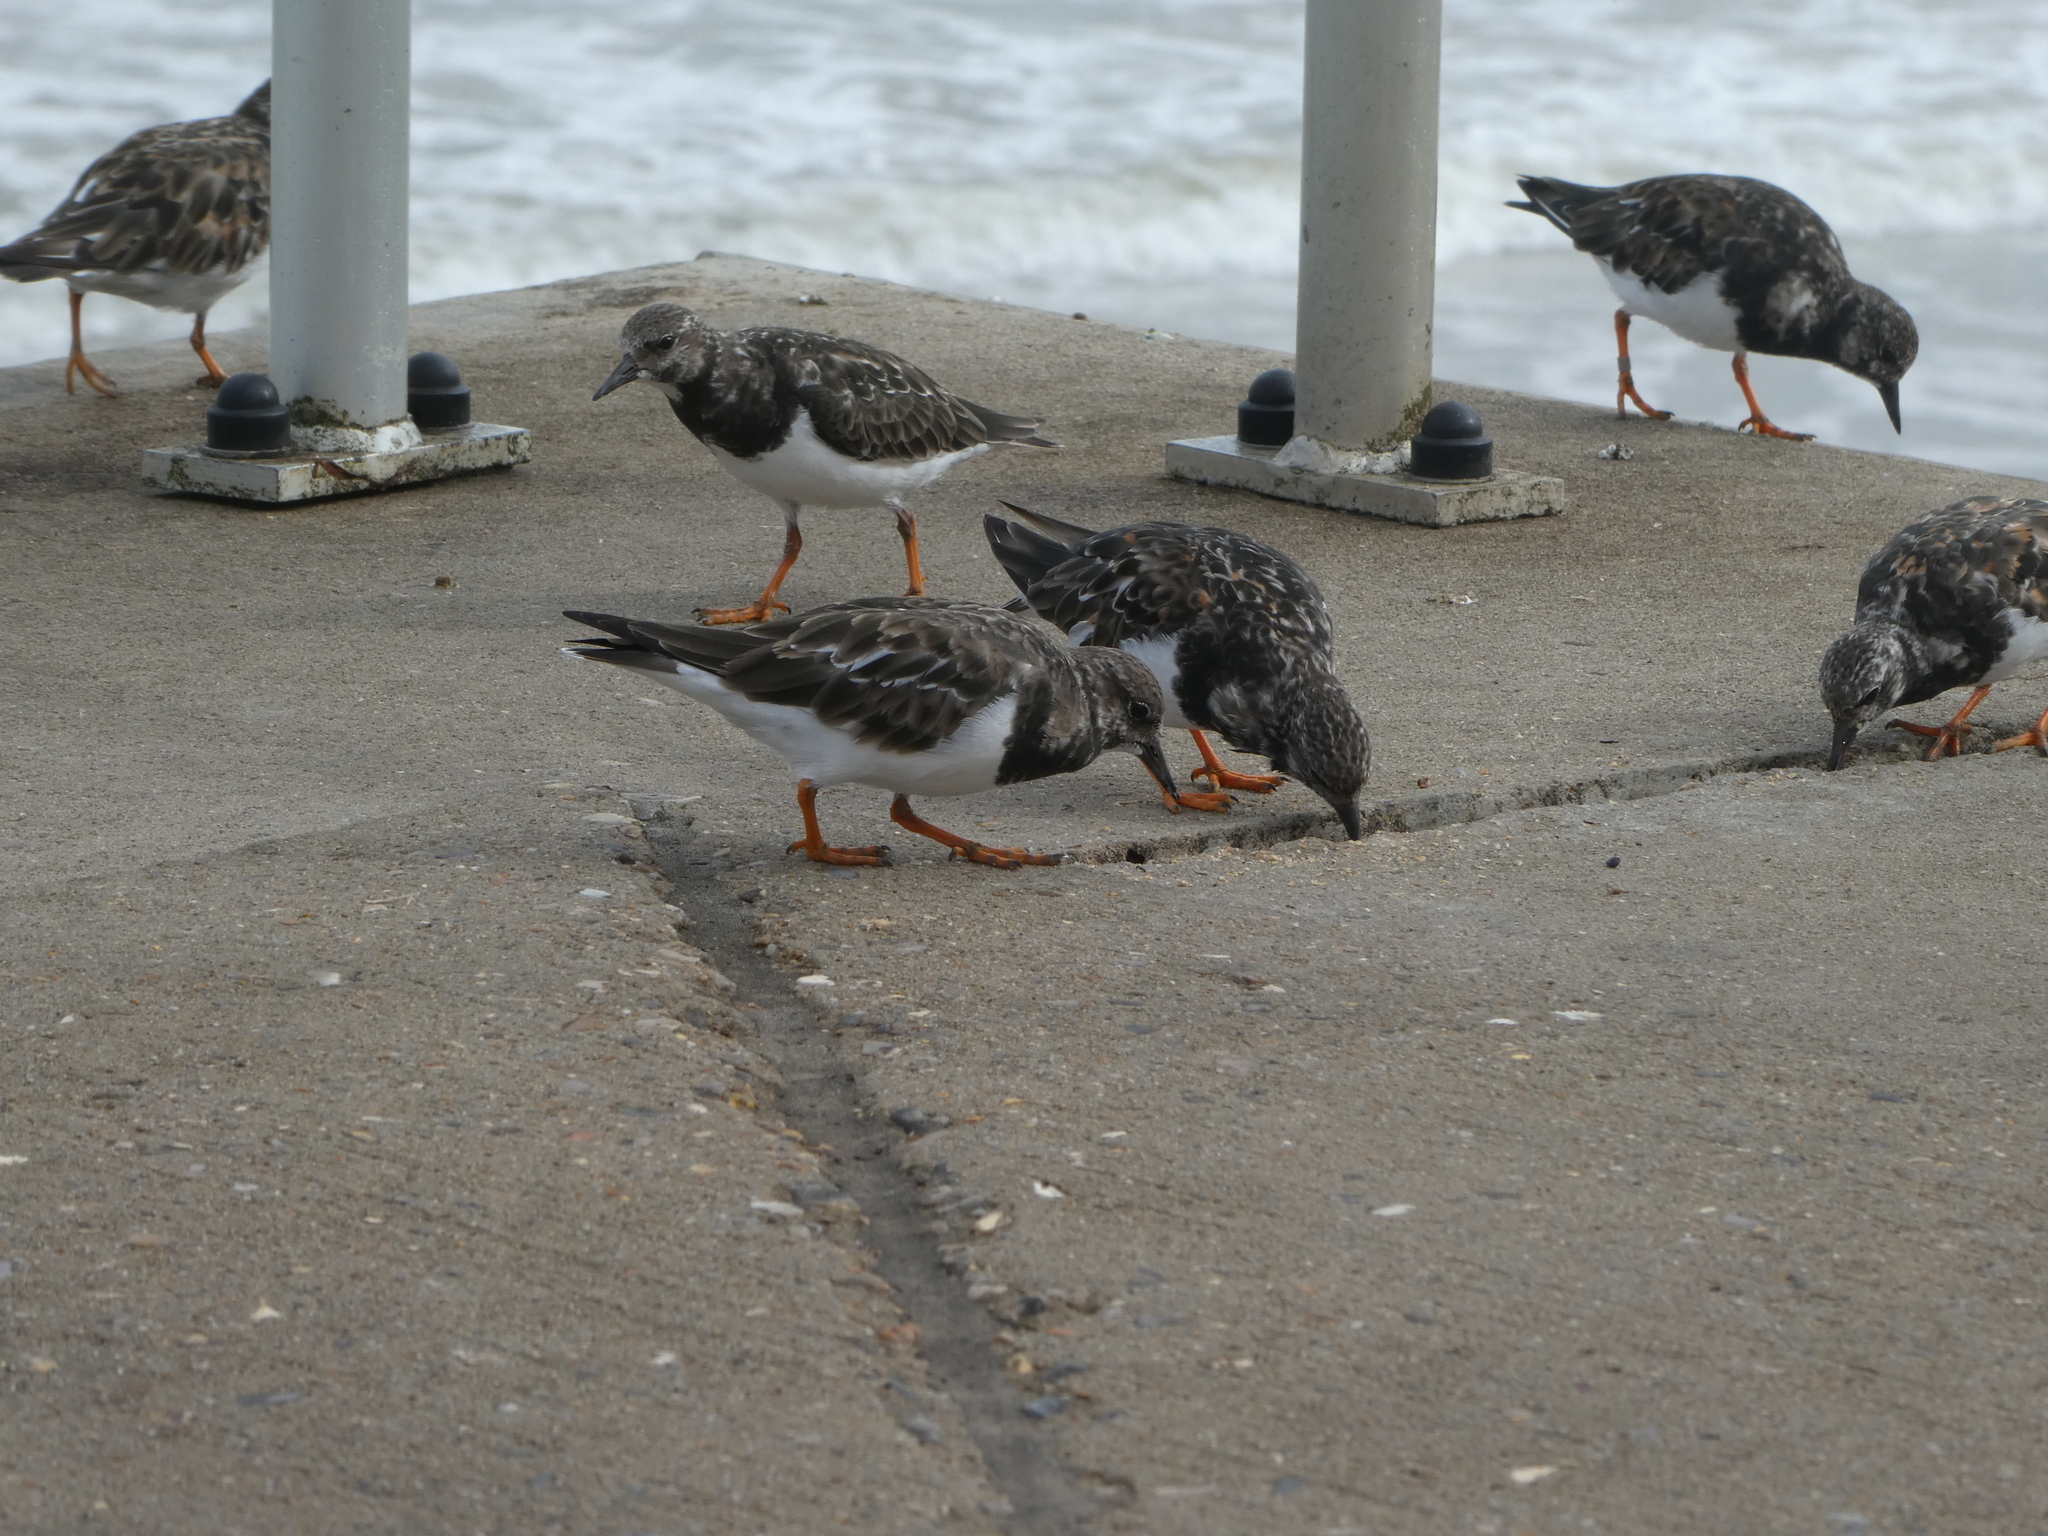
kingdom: Animalia
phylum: Chordata
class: Aves
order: Charadriiformes
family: Scolopacidae
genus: Arenaria
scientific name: Arenaria interpres
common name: Ruddy turnstone
